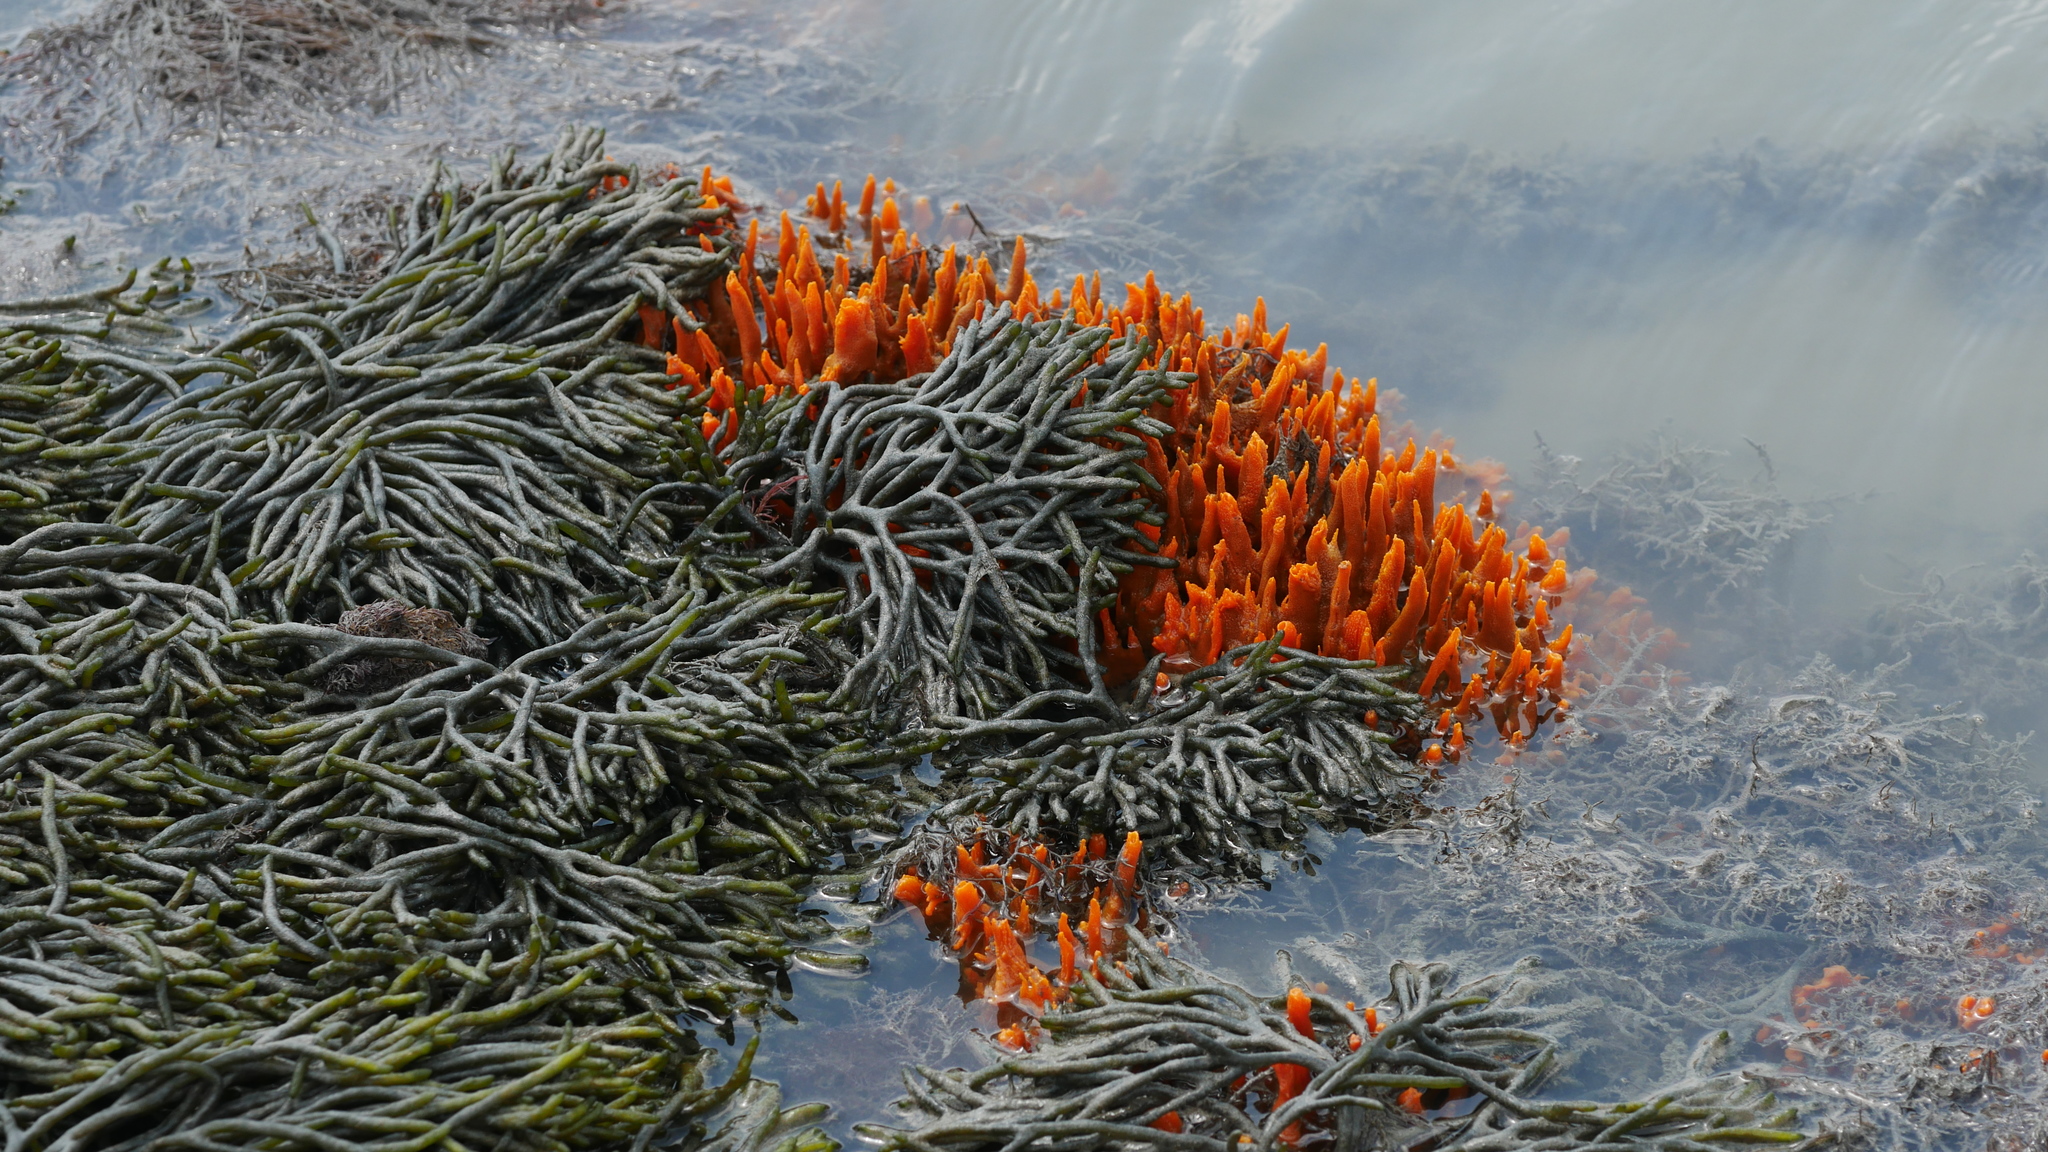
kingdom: Plantae
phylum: Chlorophyta
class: Ulvophyceae
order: Bryopsidales
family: Codiaceae
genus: Codium
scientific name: Codium fragile
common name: Dead man's fingers
